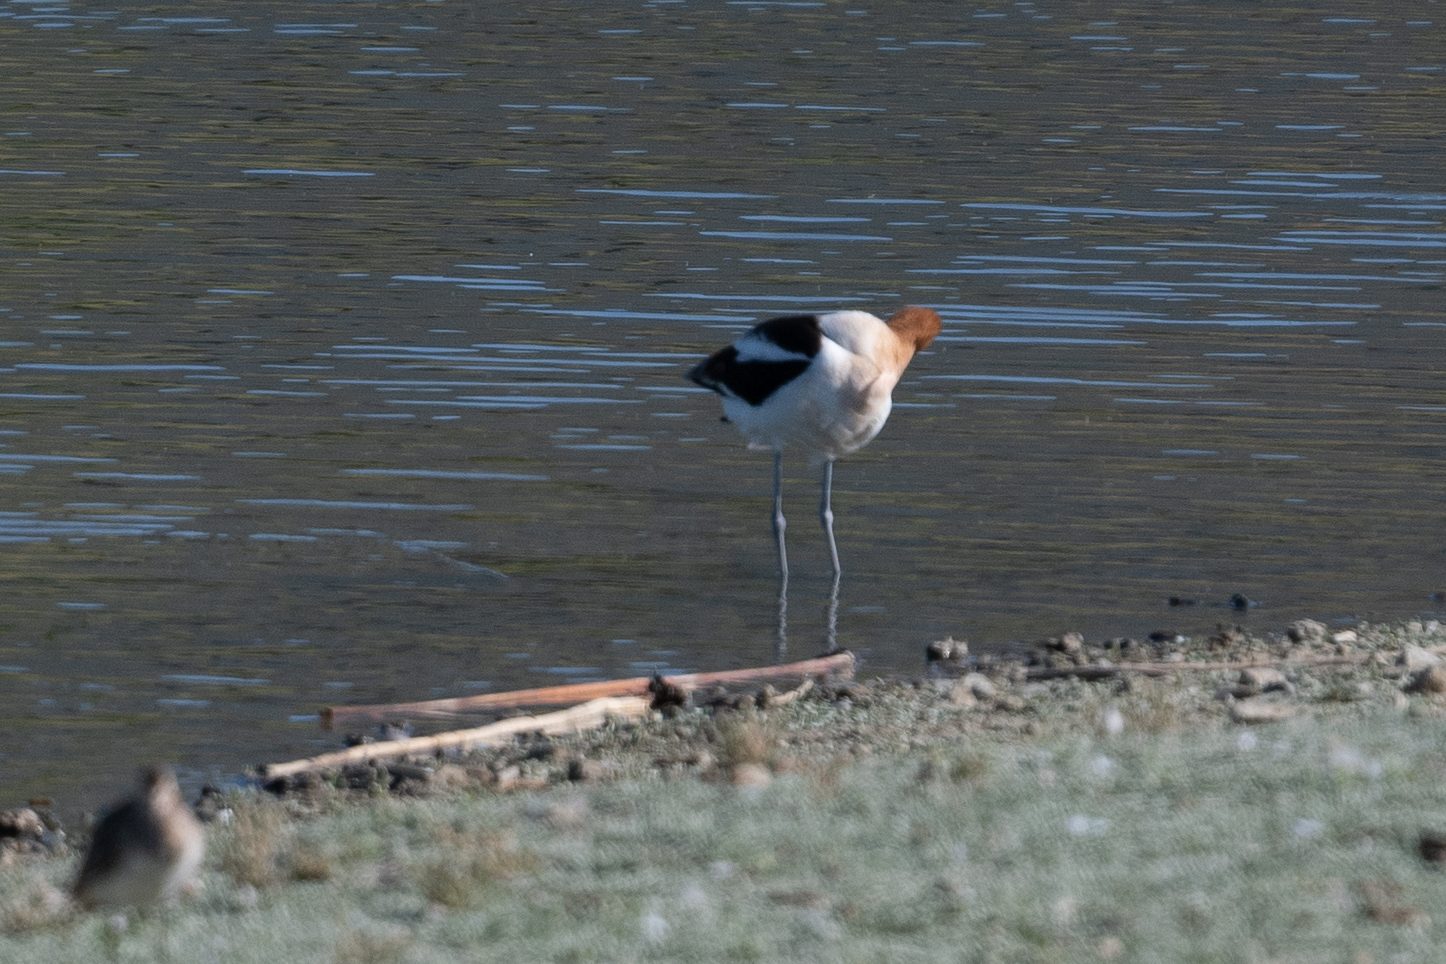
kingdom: Animalia
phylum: Chordata
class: Aves
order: Charadriiformes
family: Recurvirostridae
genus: Recurvirostra
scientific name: Recurvirostra americana
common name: American avocet
